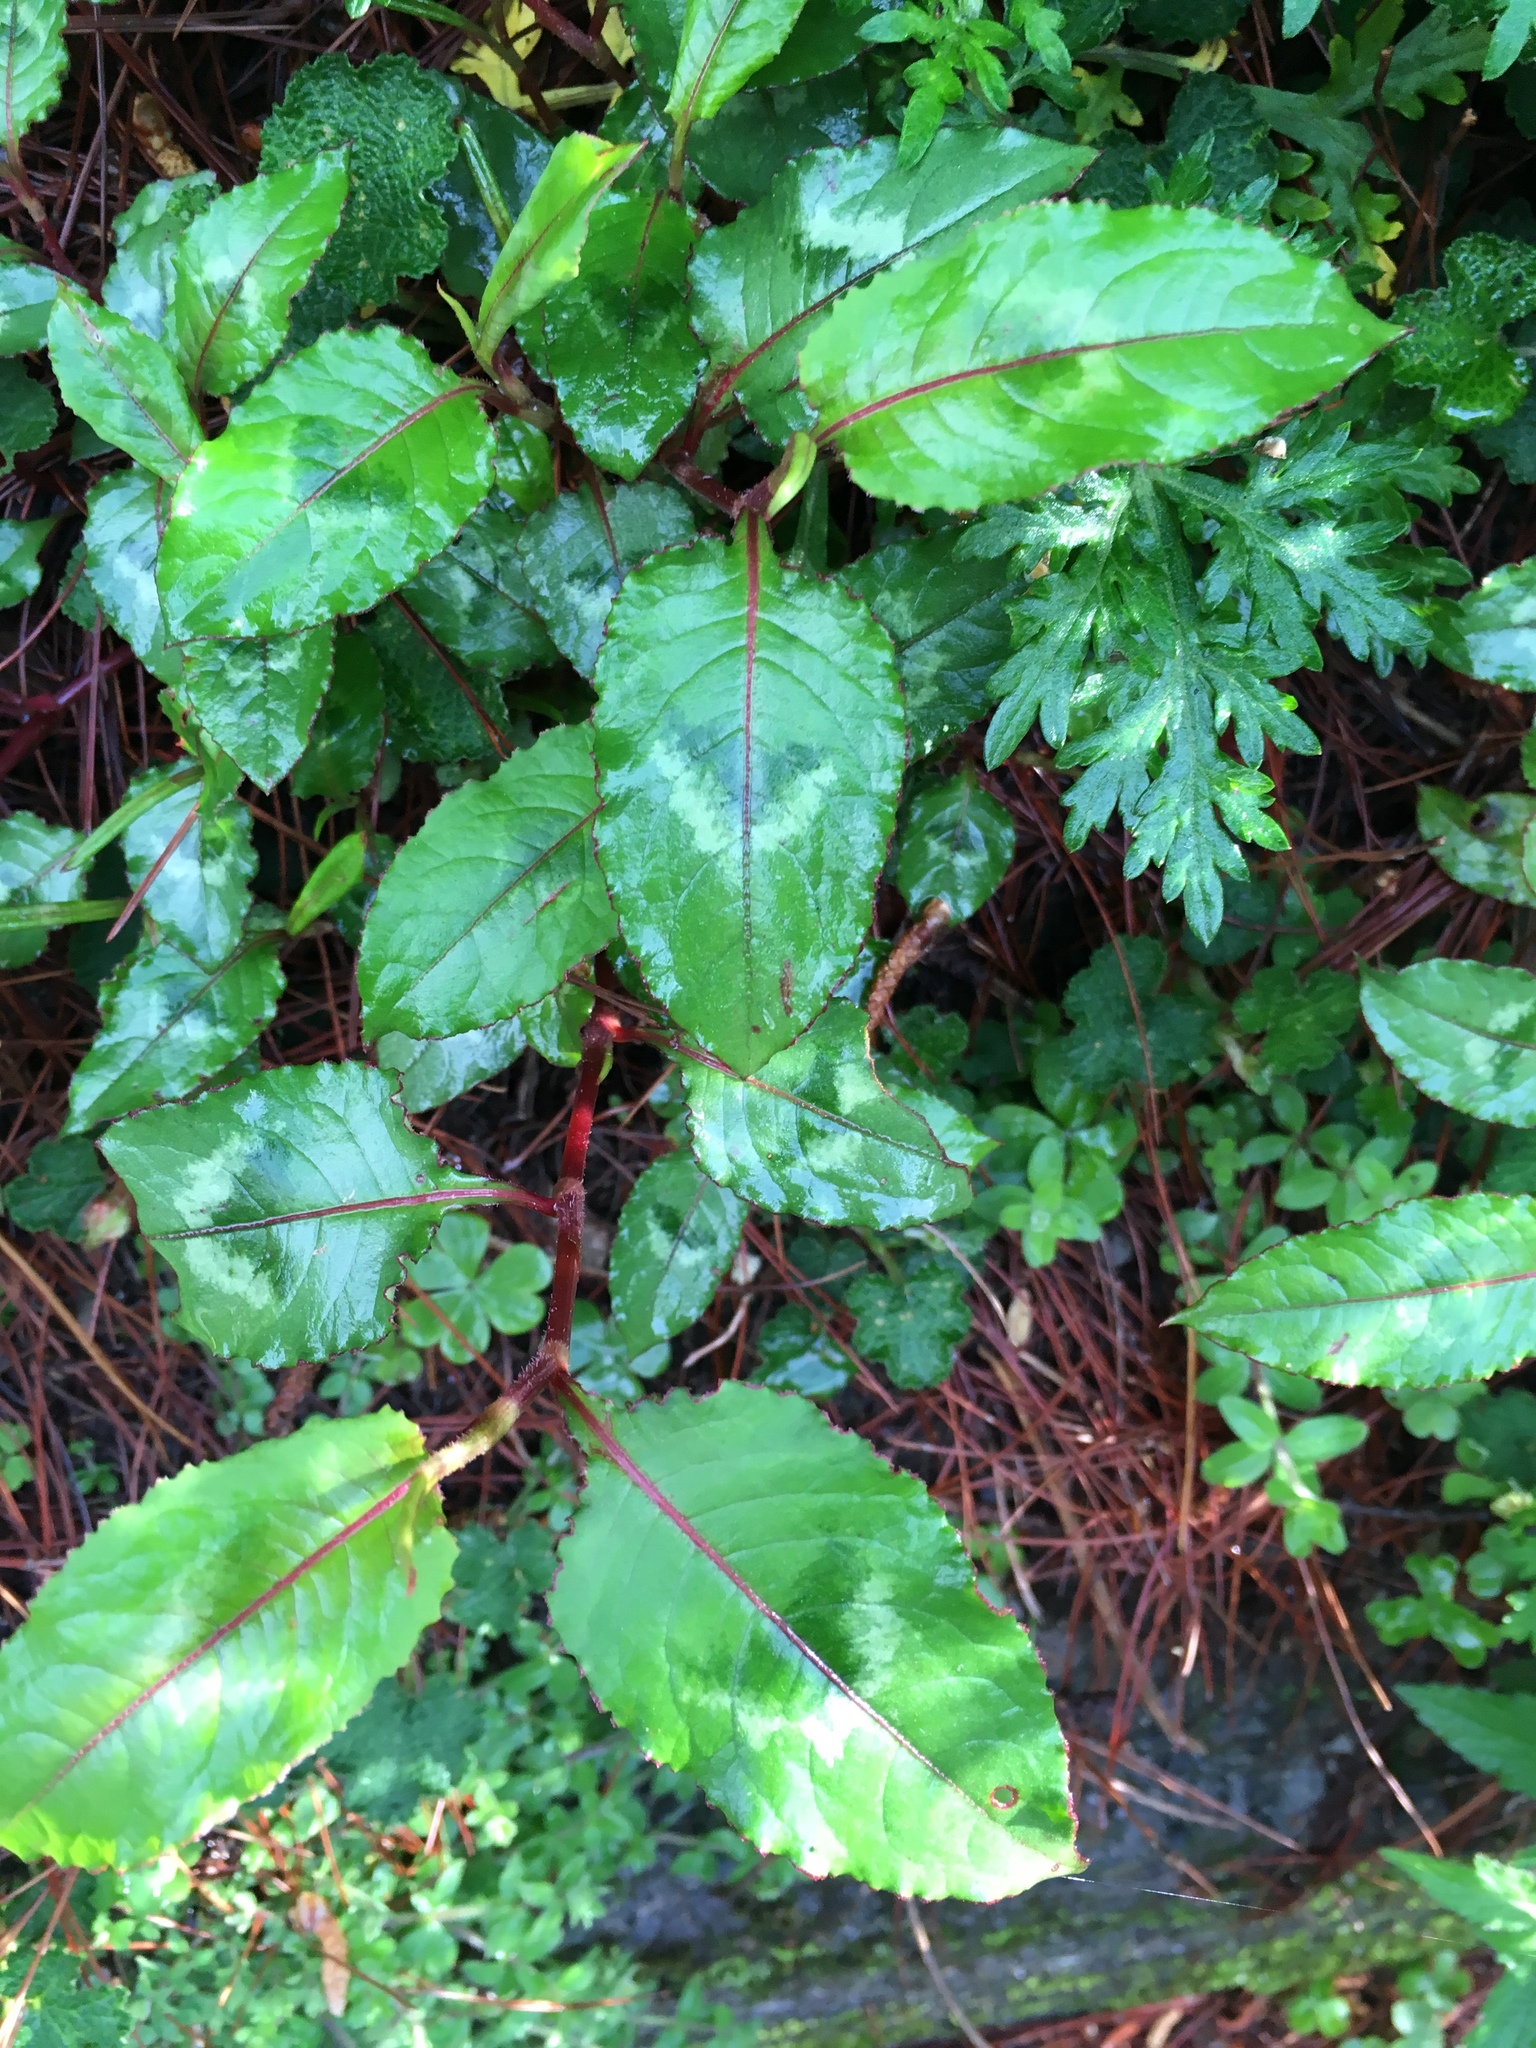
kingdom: Plantae
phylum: Tracheophyta
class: Magnoliopsida
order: Caryophyllales
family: Polygonaceae
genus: Reynoutria
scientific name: Reynoutria japonica
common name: Japanese knotweed
